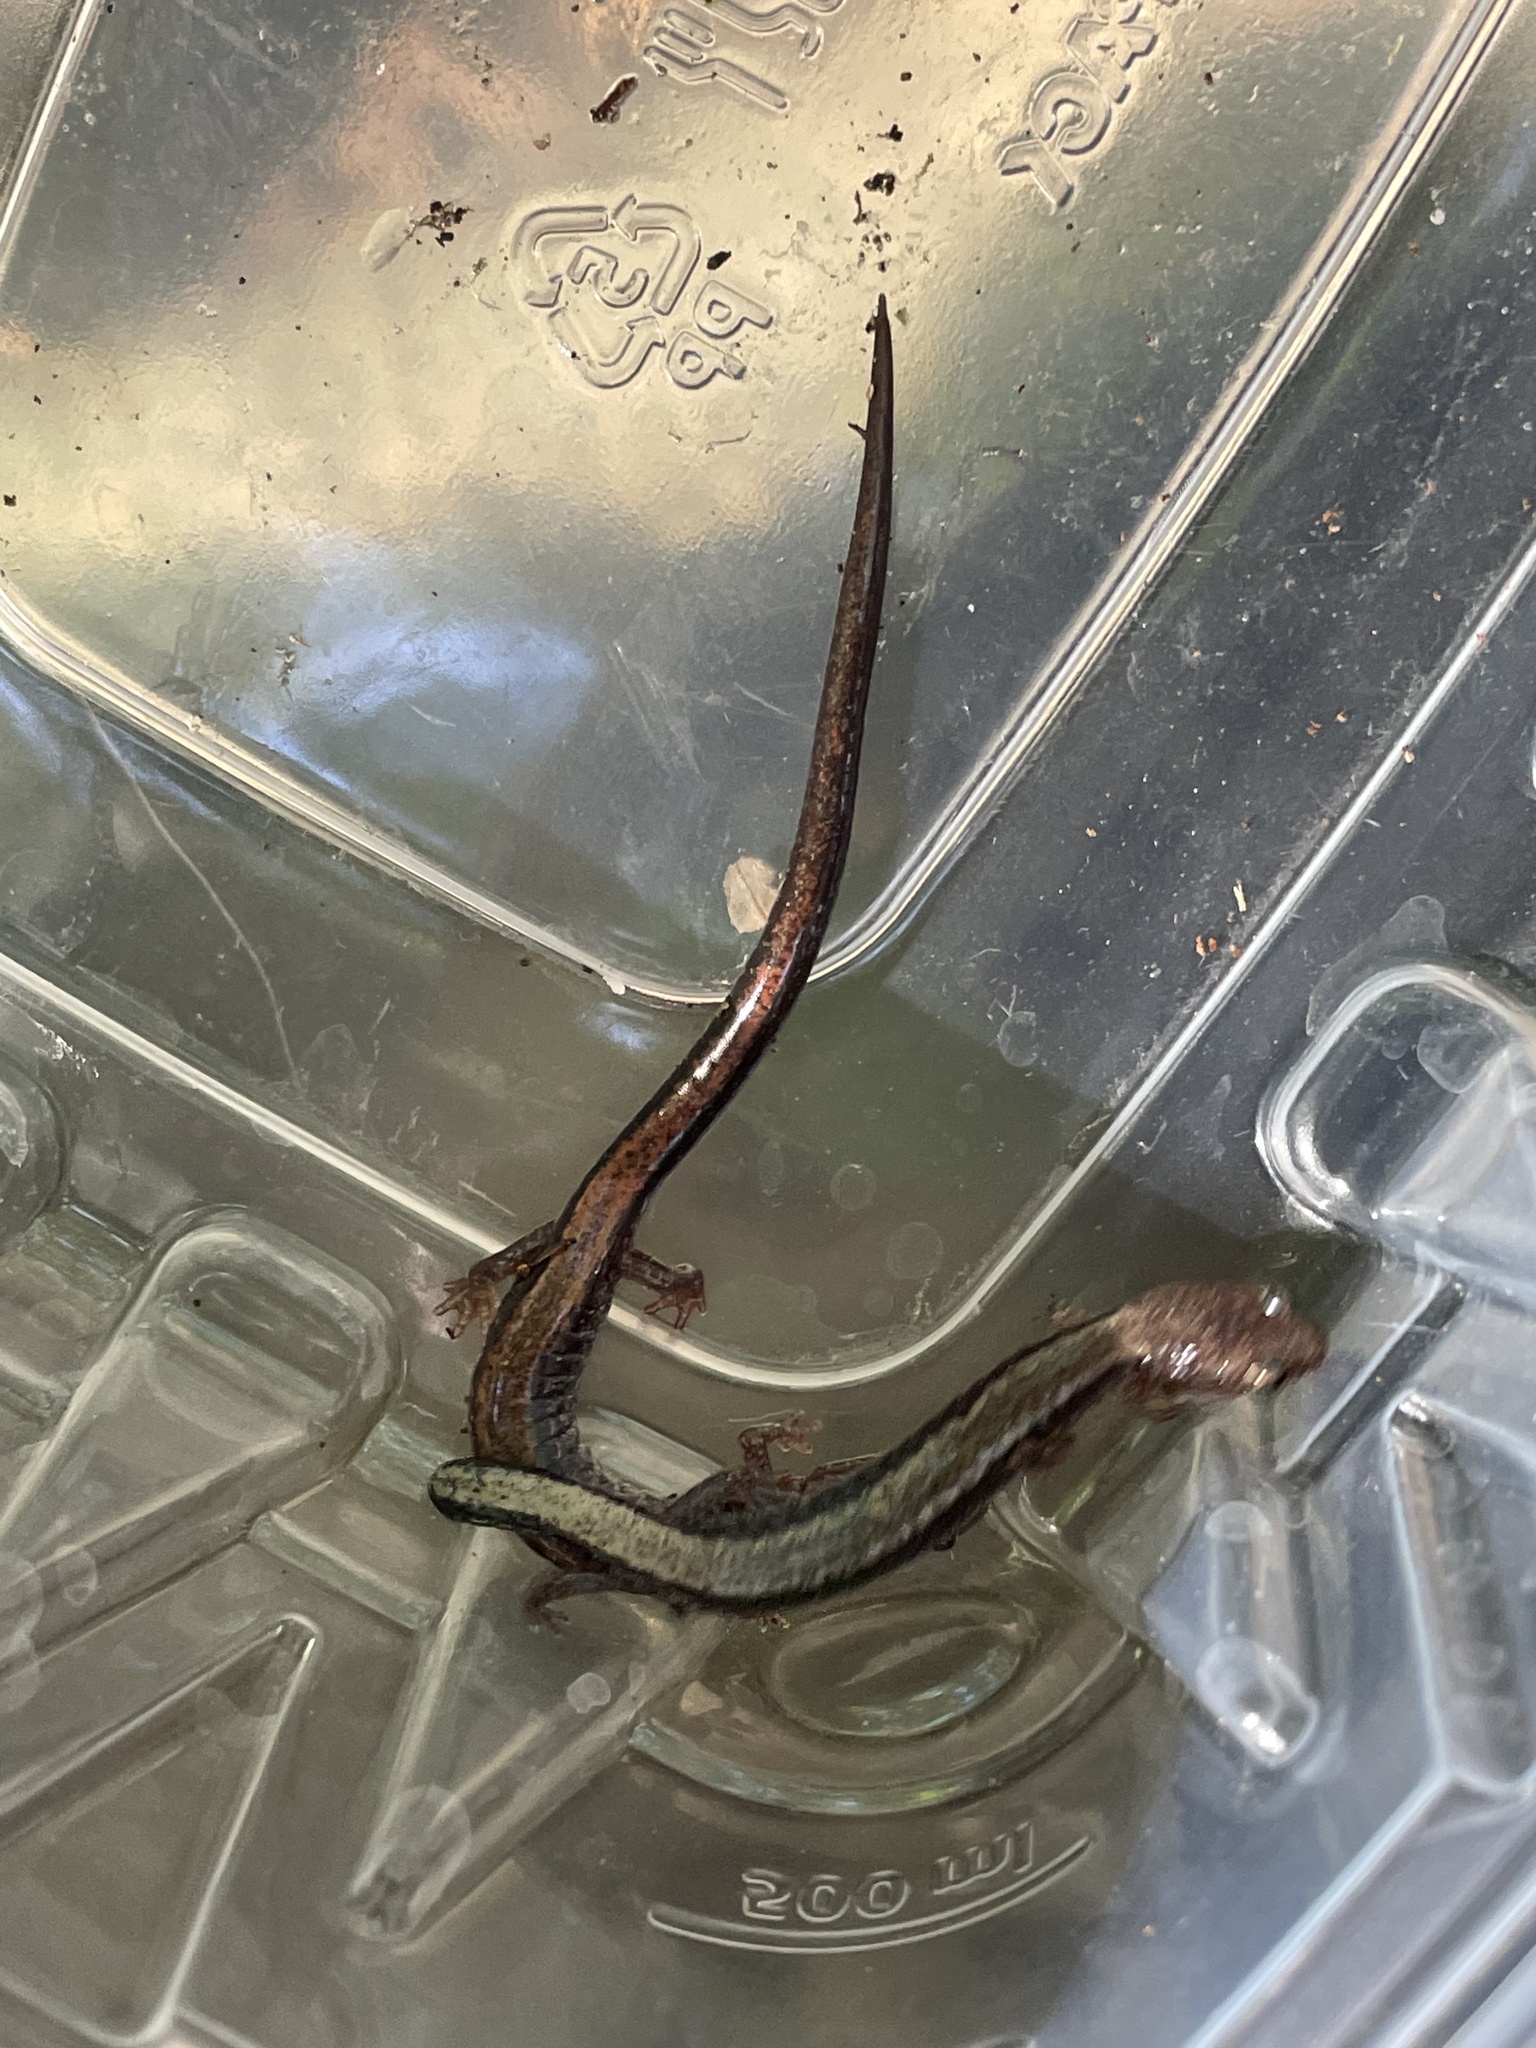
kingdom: Animalia
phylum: Chordata
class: Amphibia
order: Caudata
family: Plethodontidae
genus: Plethodon
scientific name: Plethodon cinereus
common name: Redback salamander
